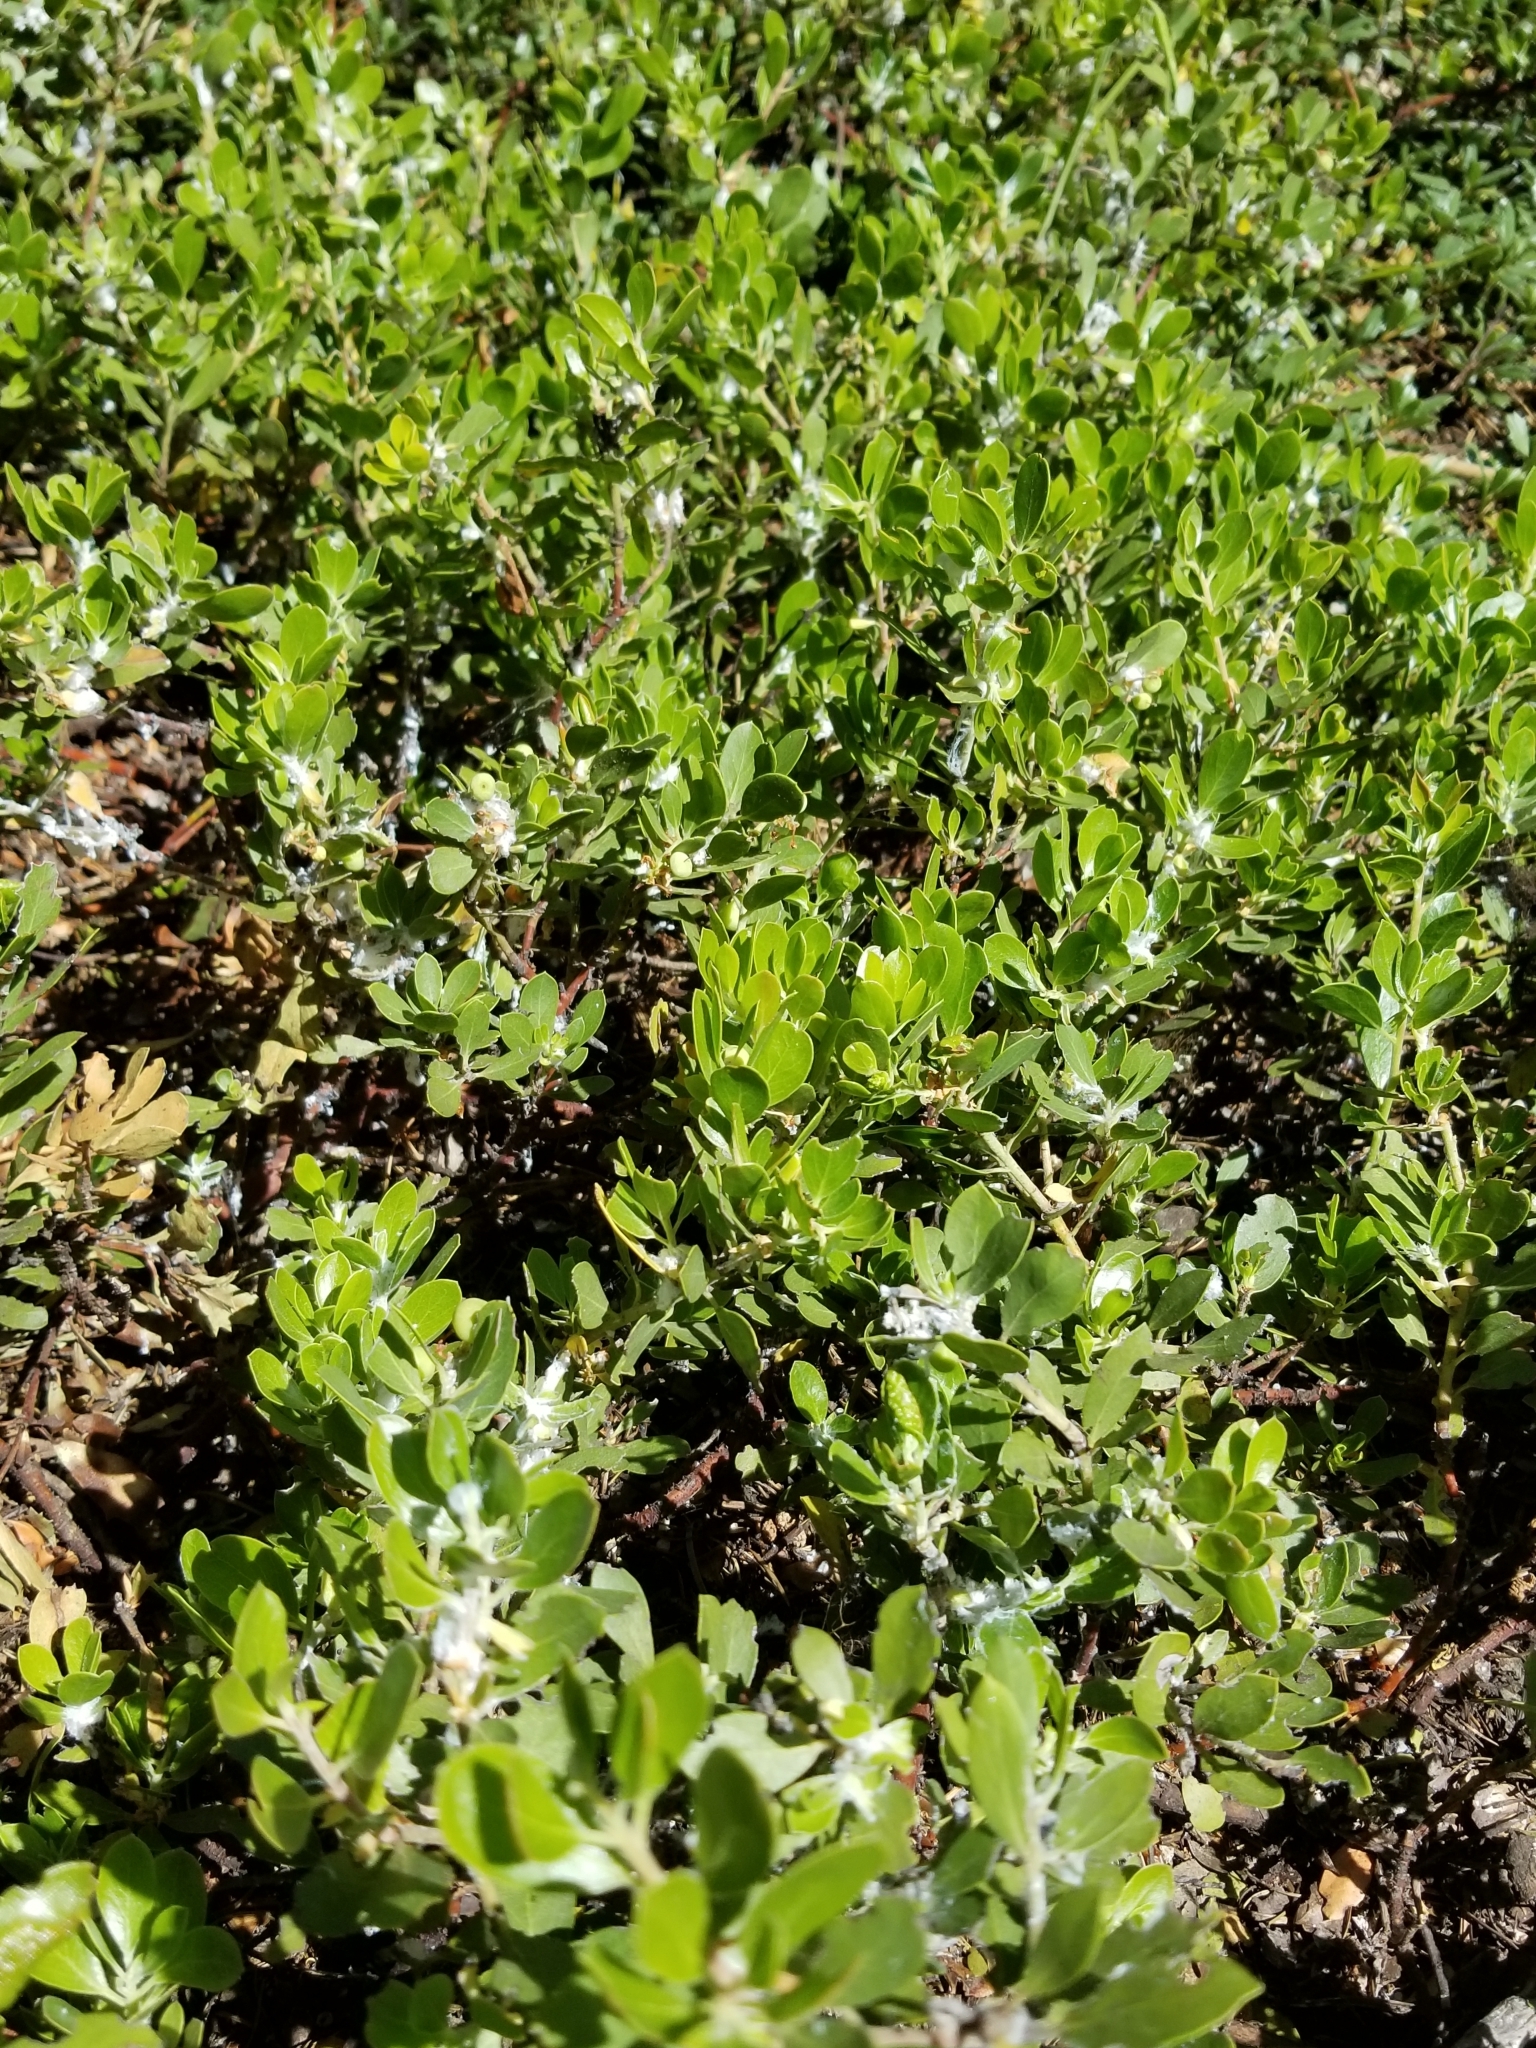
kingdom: Plantae
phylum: Tracheophyta
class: Magnoliopsida
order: Ericales
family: Ericaceae
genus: Arctostaphylos
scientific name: Arctostaphylos nevadensis
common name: Pinemat manzanita
